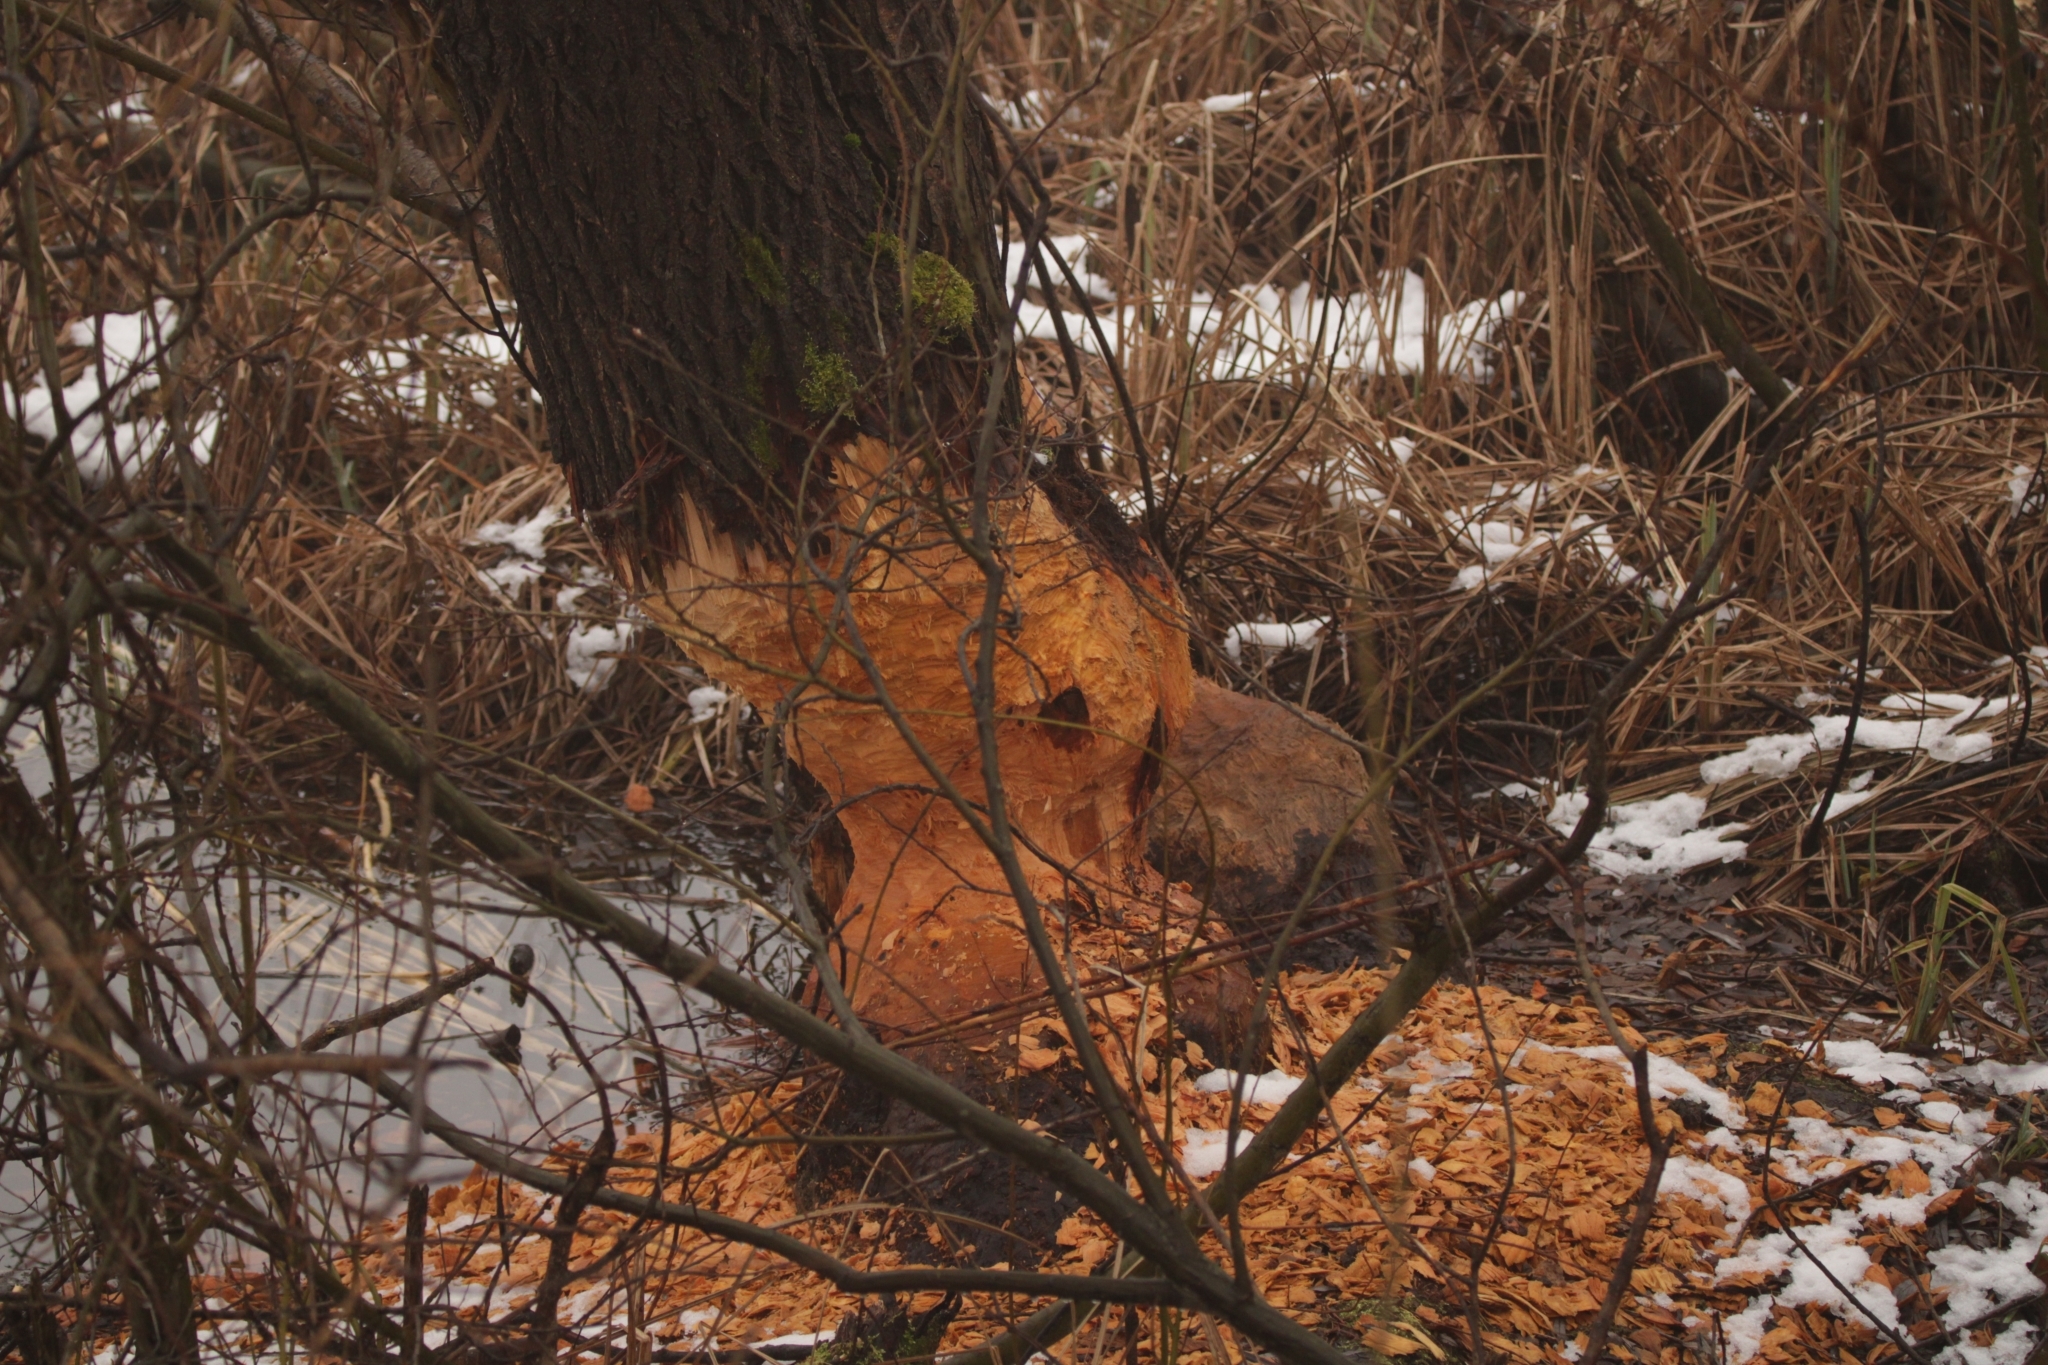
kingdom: Animalia
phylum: Chordata
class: Mammalia
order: Rodentia
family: Castoridae
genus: Castor
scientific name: Castor fiber
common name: Eurasian beaver
